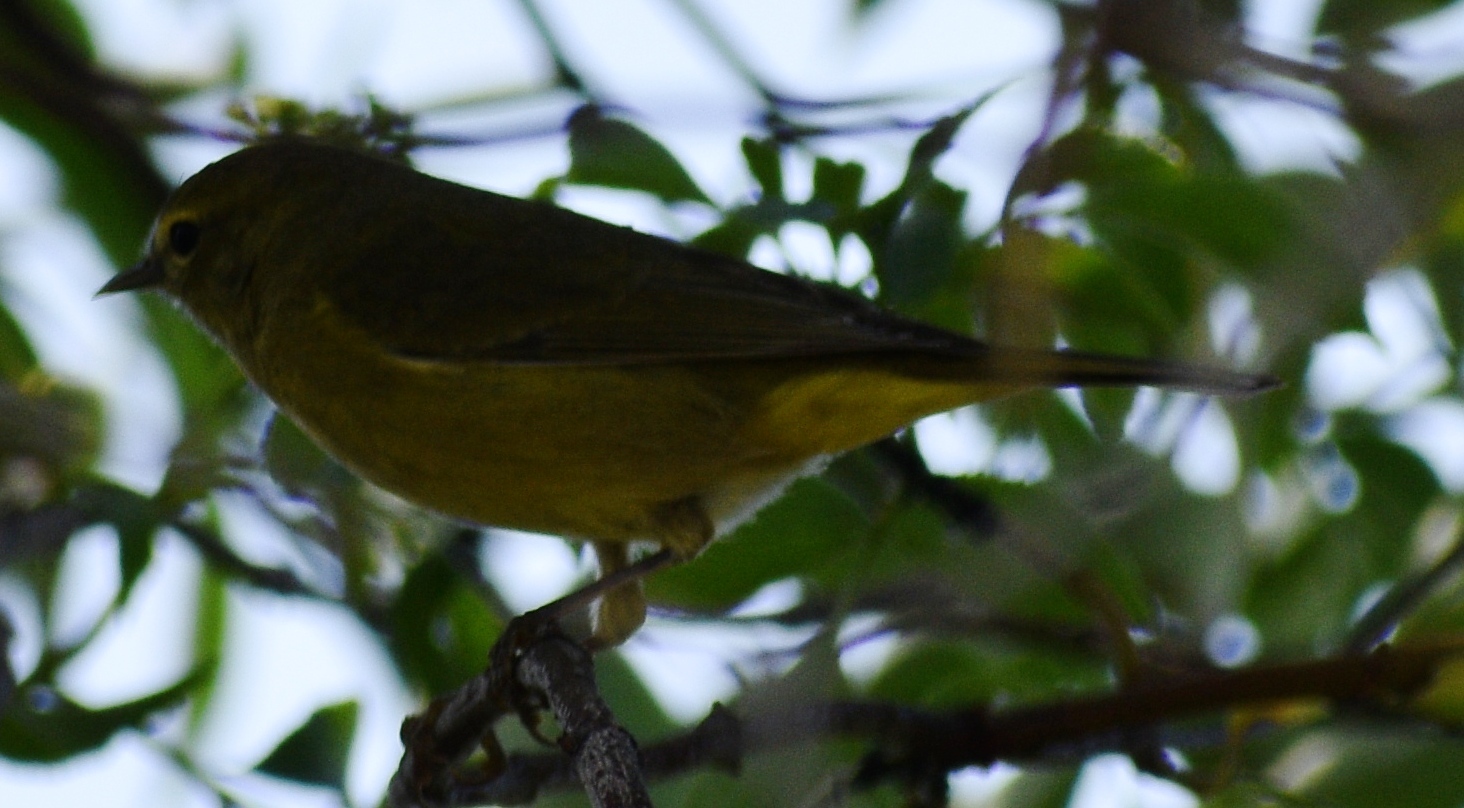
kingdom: Animalia
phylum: Chordata
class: Aves
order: Passeriformes
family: Parulidae
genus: Leiothlypis
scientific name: Leiothlypis celata
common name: Orange-crowned warbler
